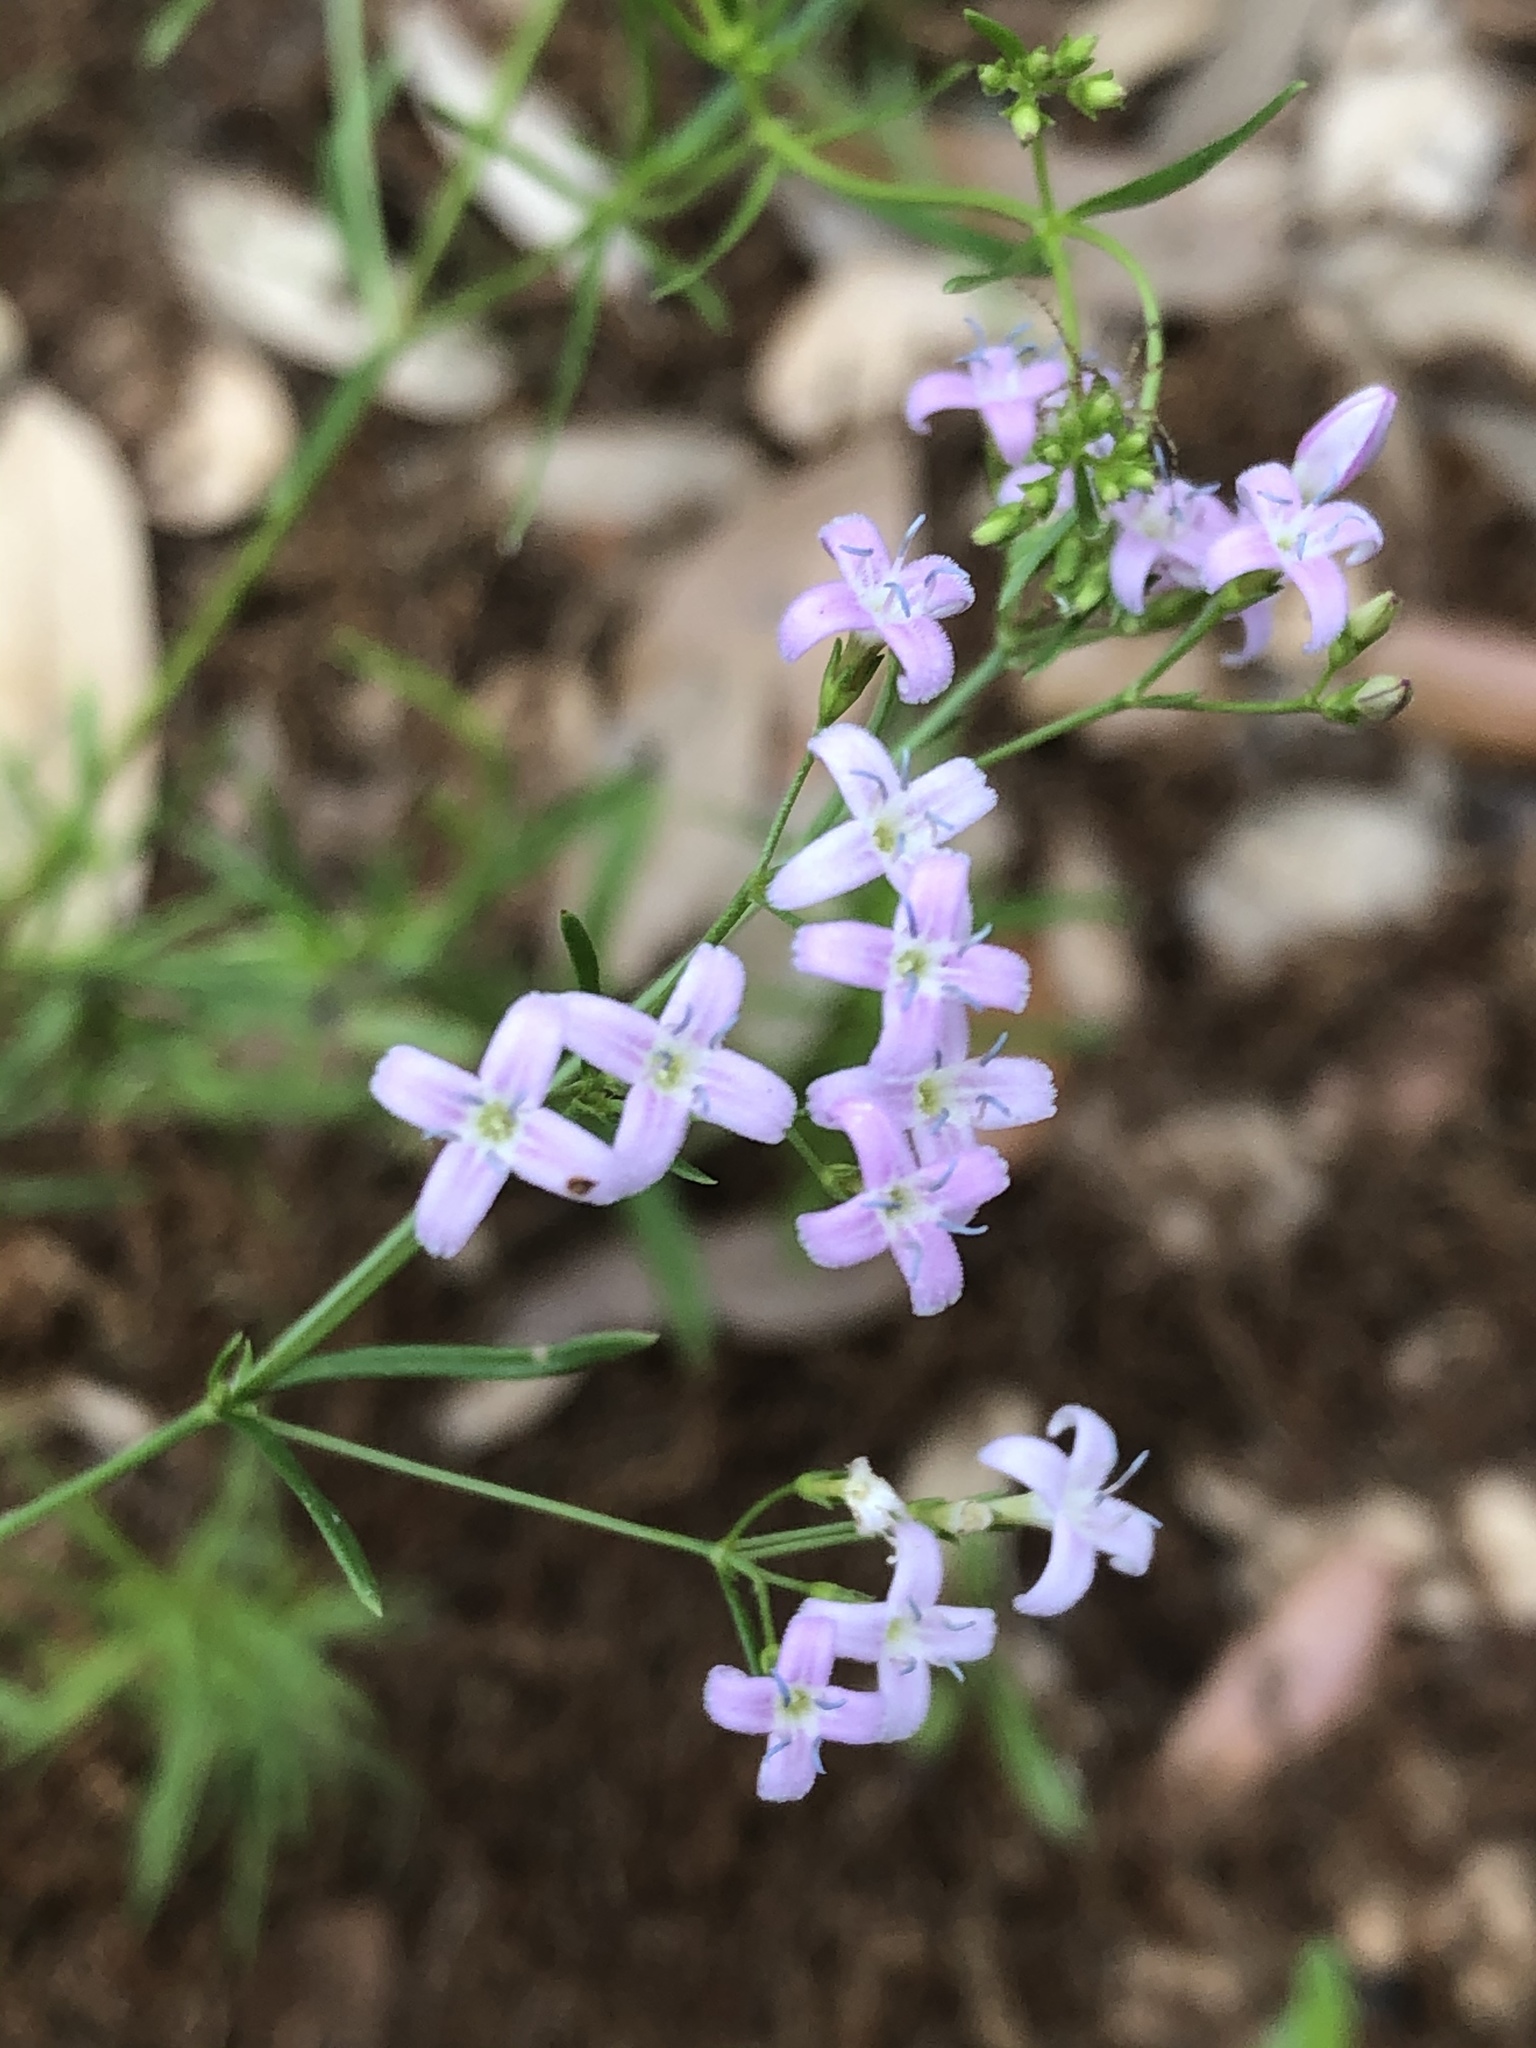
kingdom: Plantae
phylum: Tracheophyta
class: Magnoliopsida
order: Gentianales
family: Rubiaceae
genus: Stenaria
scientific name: Stenaria nigricans
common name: Diamondflowers
